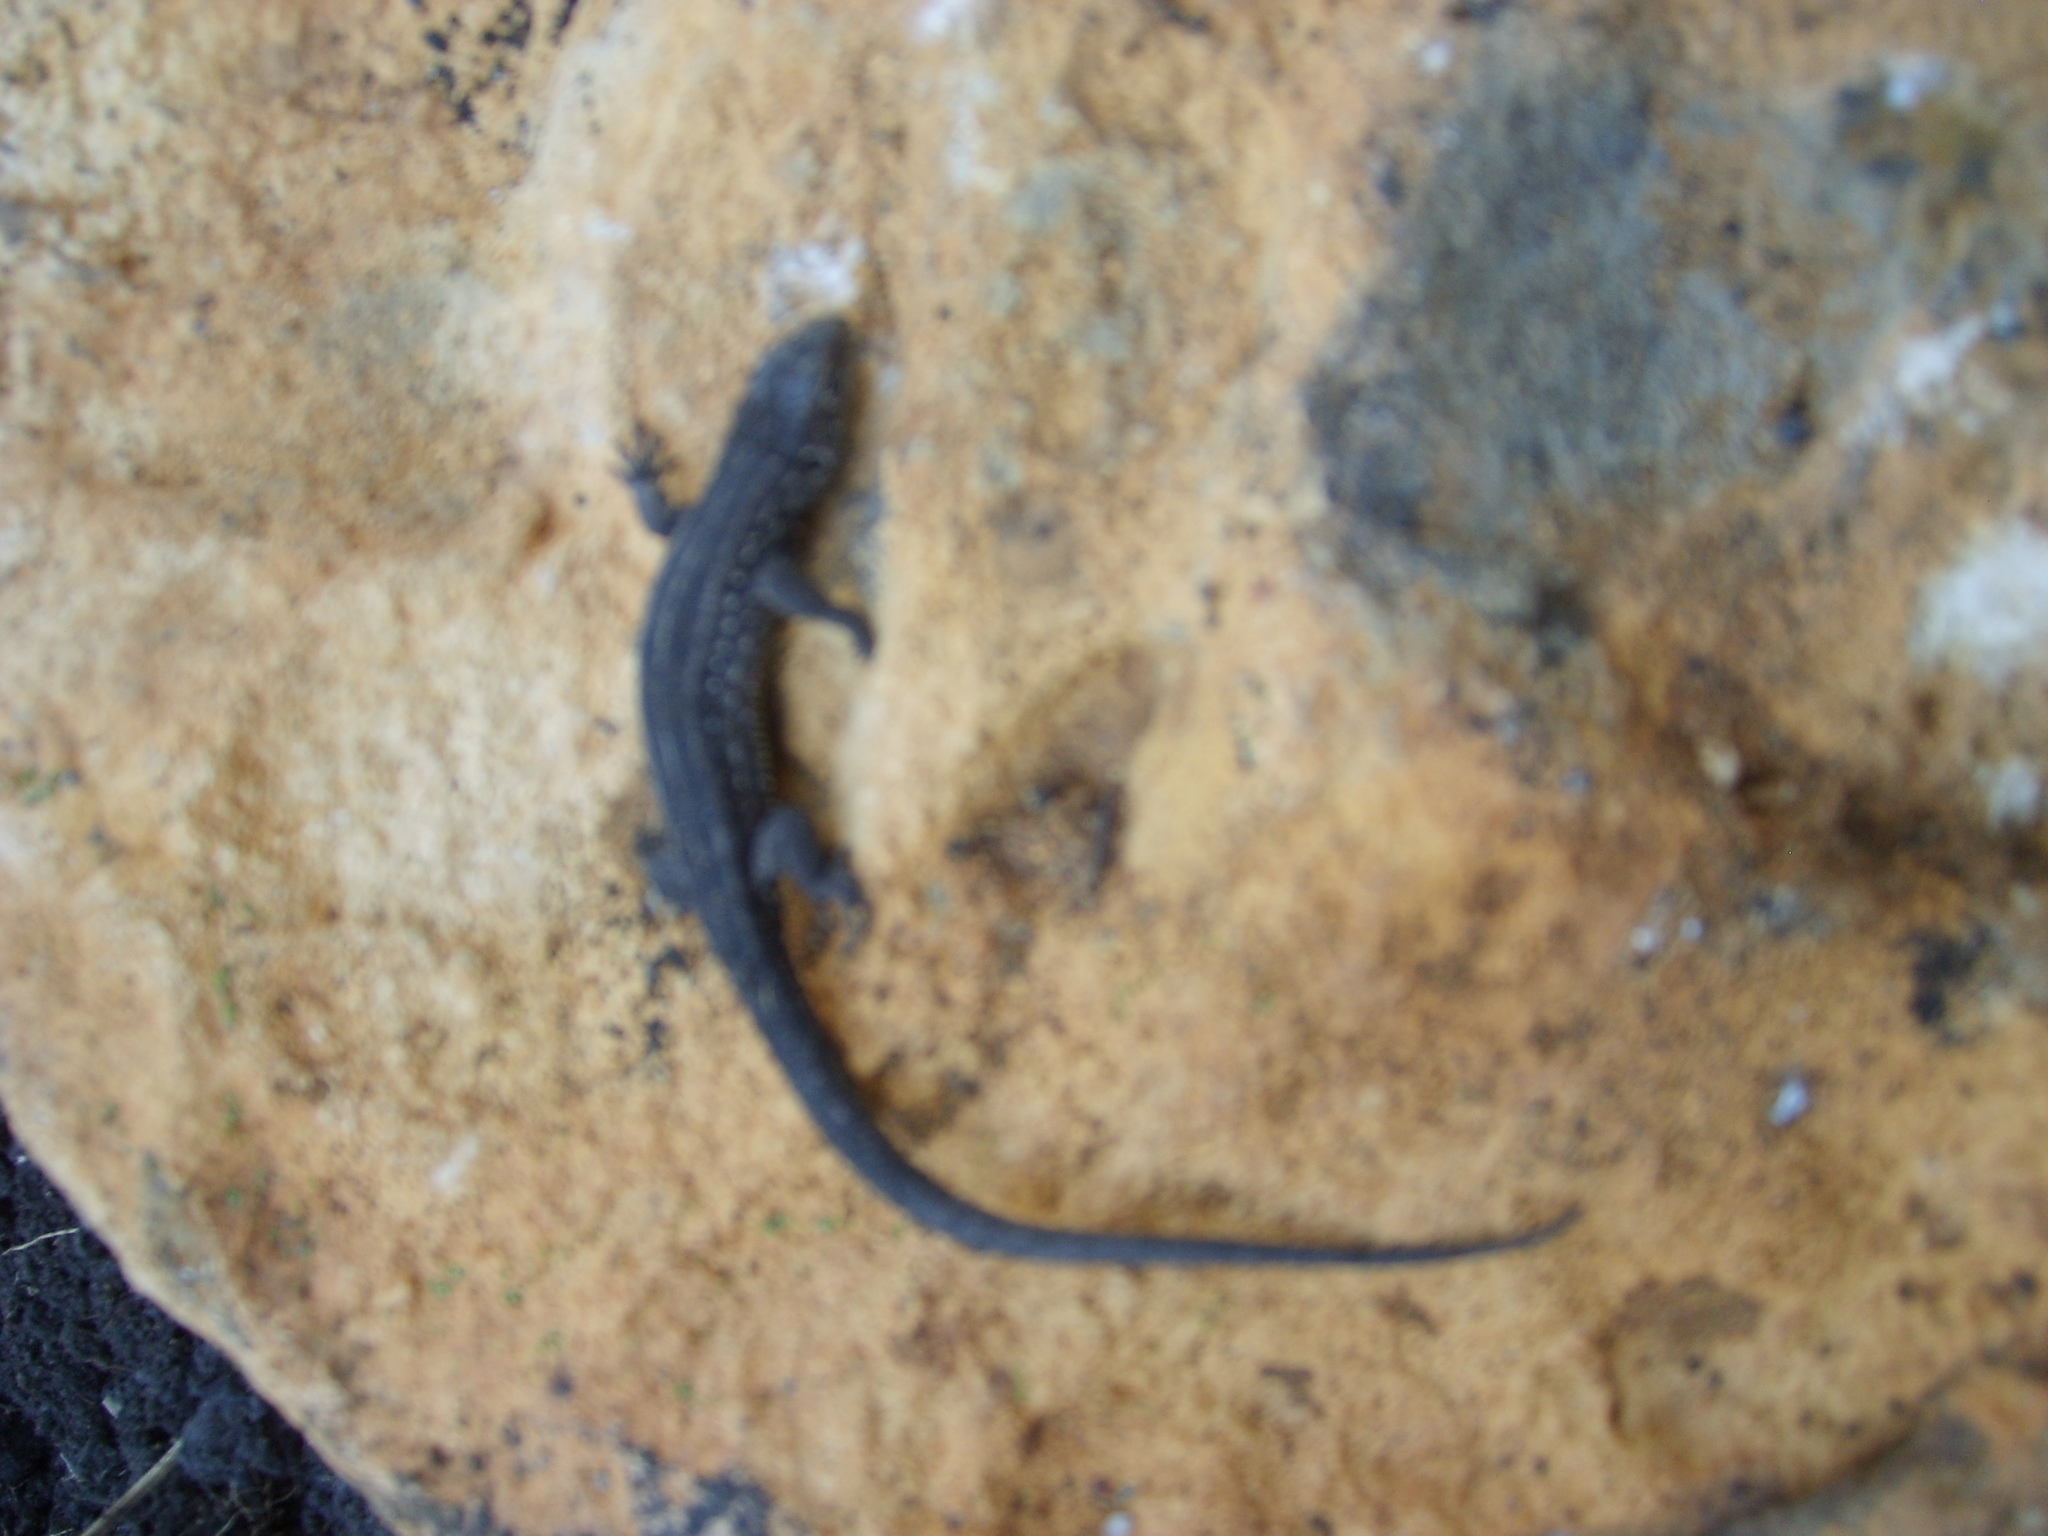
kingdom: Animalia
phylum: Chordata
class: Squamata
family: Lacertidae
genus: Lacerta
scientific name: Lacerta agilis
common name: Sand lizard
